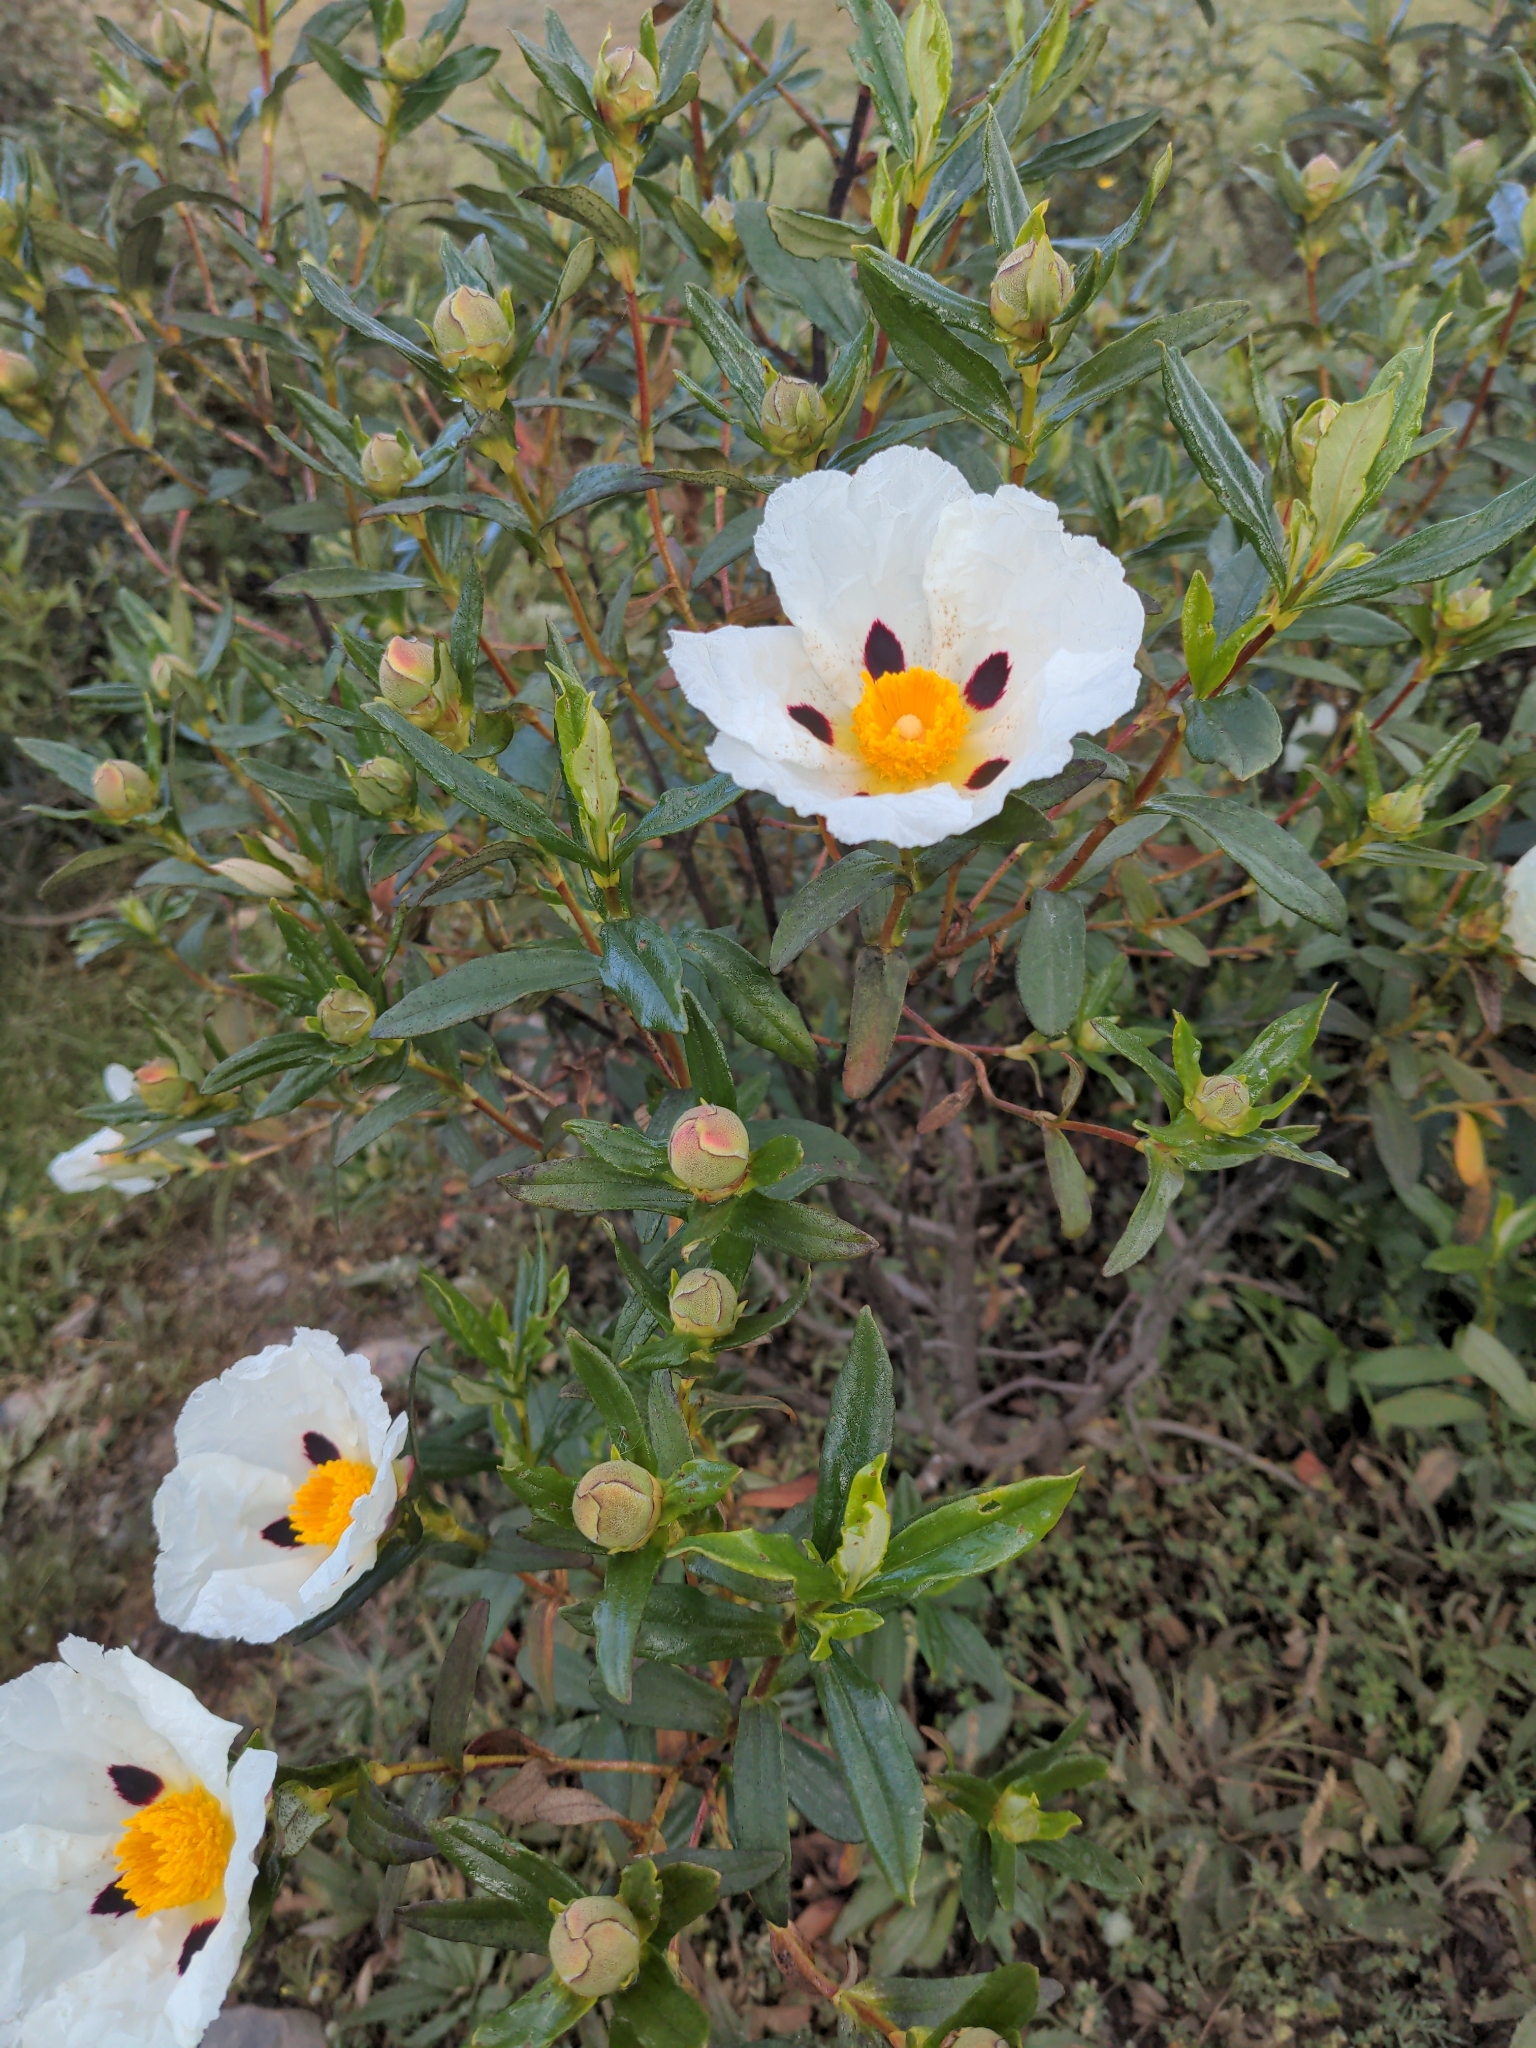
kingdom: Plantae
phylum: Tracheophyta
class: Magnoliopsida
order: Malvales
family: Cistaceae
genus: Cistus
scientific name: Cistus ladanifer
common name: Common gum cistus
